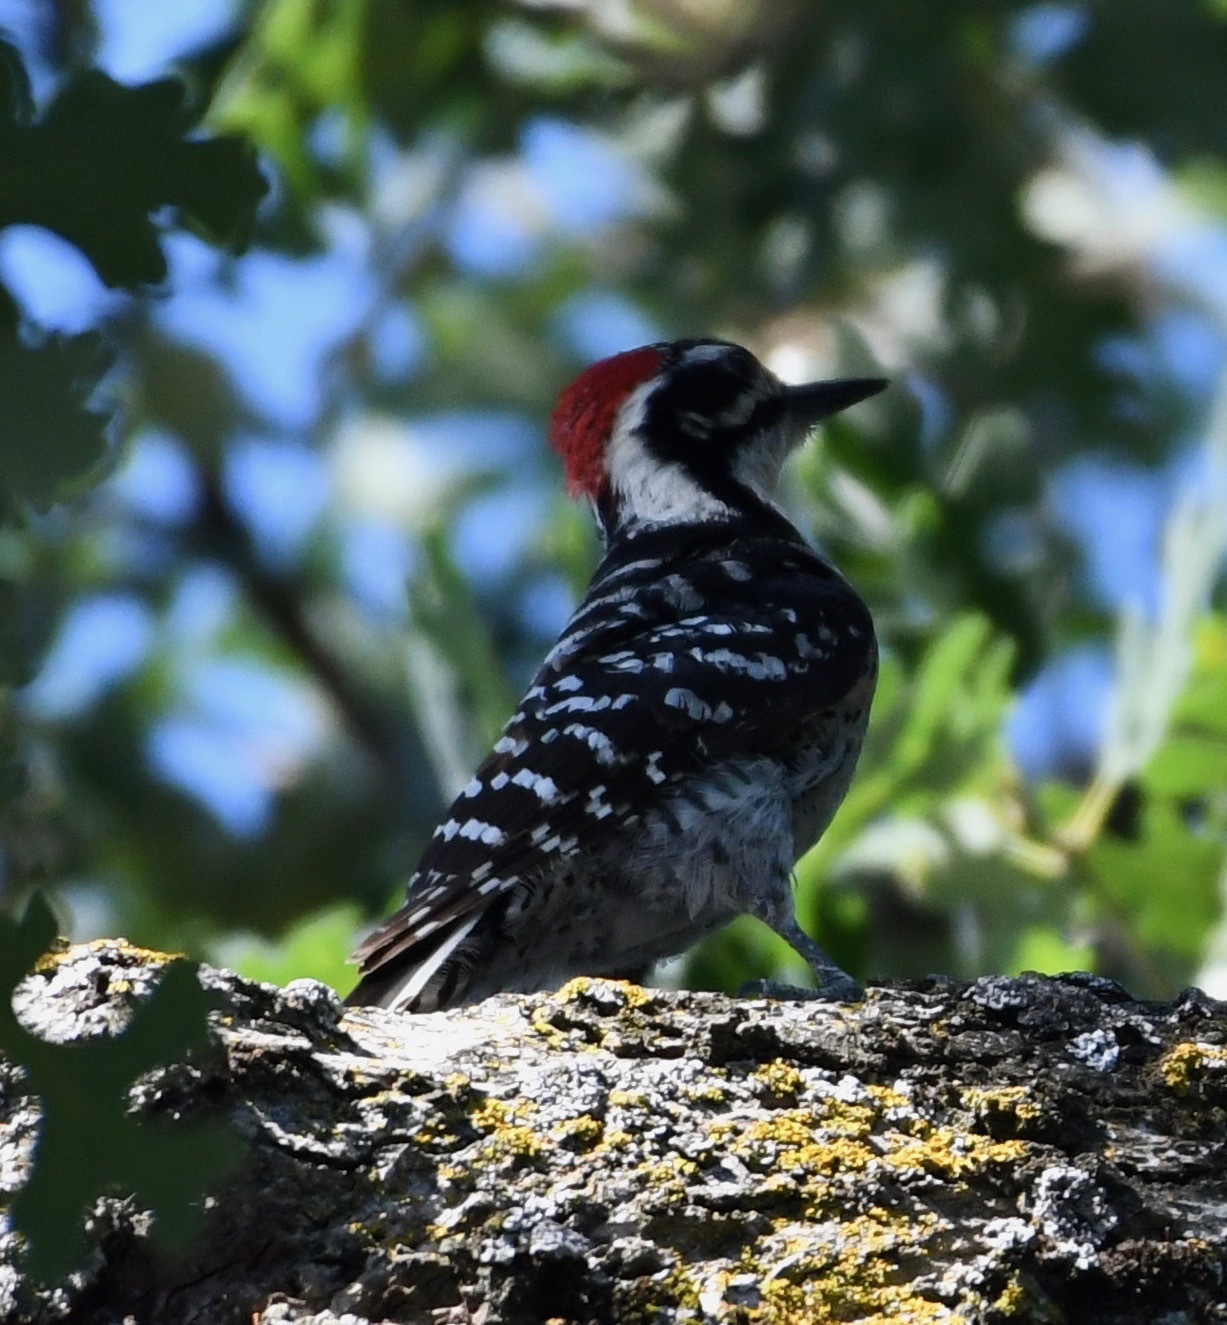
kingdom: Animalia
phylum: Chordata
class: Aves
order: Piciformes
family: Picidae
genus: Dryobates
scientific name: Dryobates nuttallii
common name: Nuttall's woodpecker
